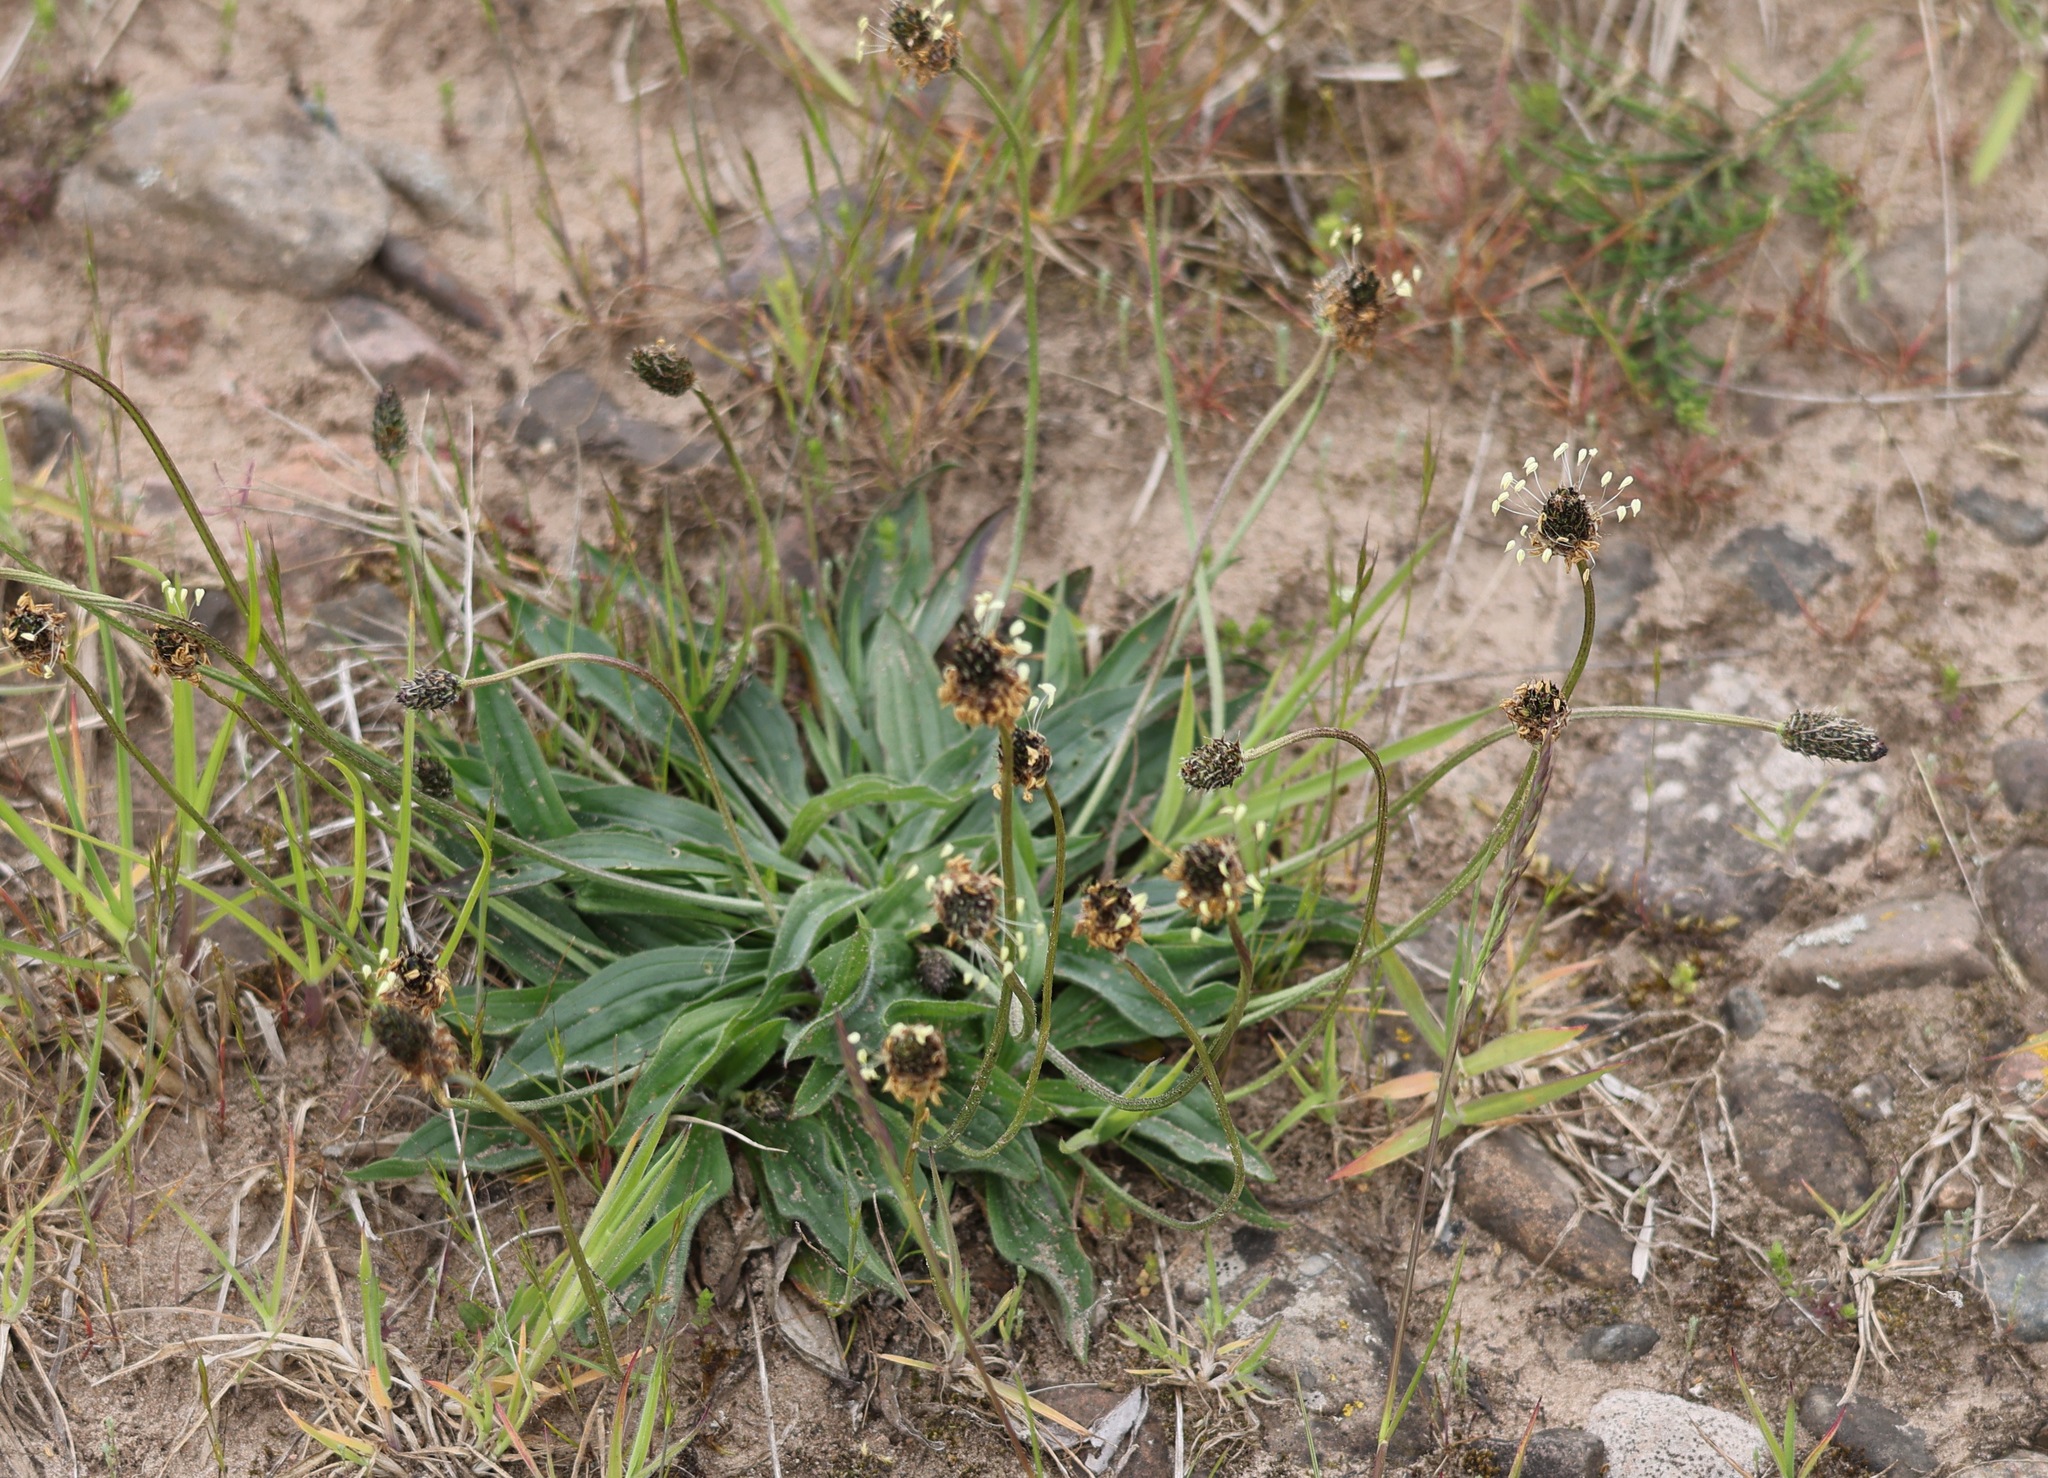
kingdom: Plantae
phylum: Tracheophyta
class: Magnoliopsida
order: Lamiales
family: Plantaginaceae
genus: Plantago
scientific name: Plantago lanceolata
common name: Ribwort plantain
